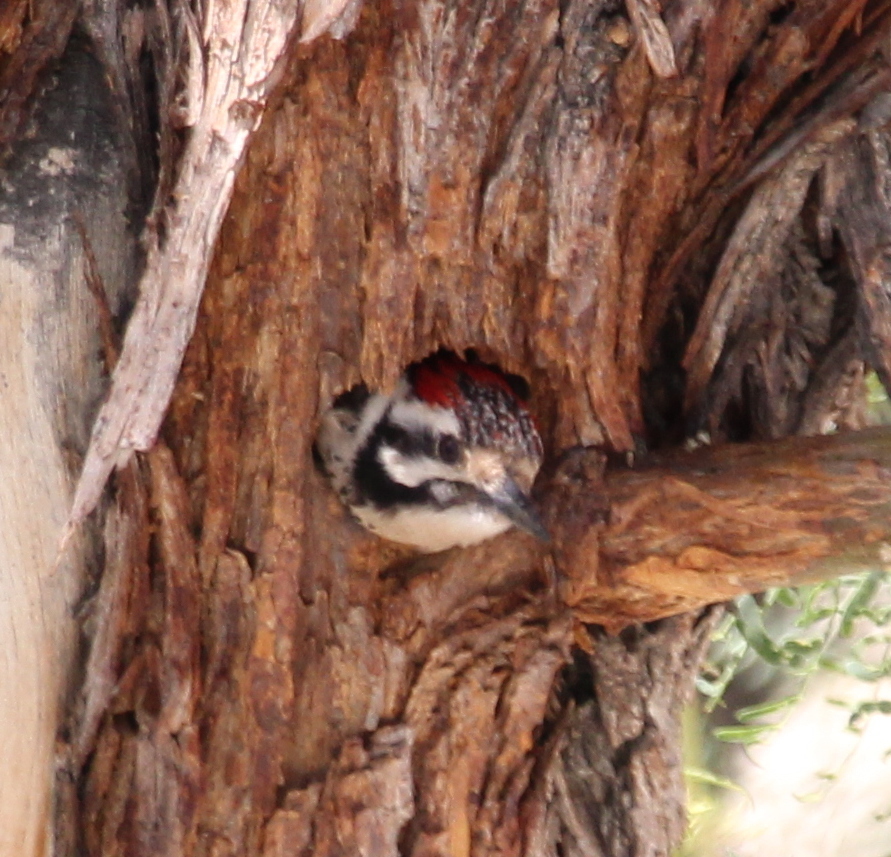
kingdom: Animalia
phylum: Chordata
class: Aves
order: Piciformes
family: Picidae
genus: Dryobates
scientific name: Dryobates scalaris
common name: Ladder-backed woodpecker
